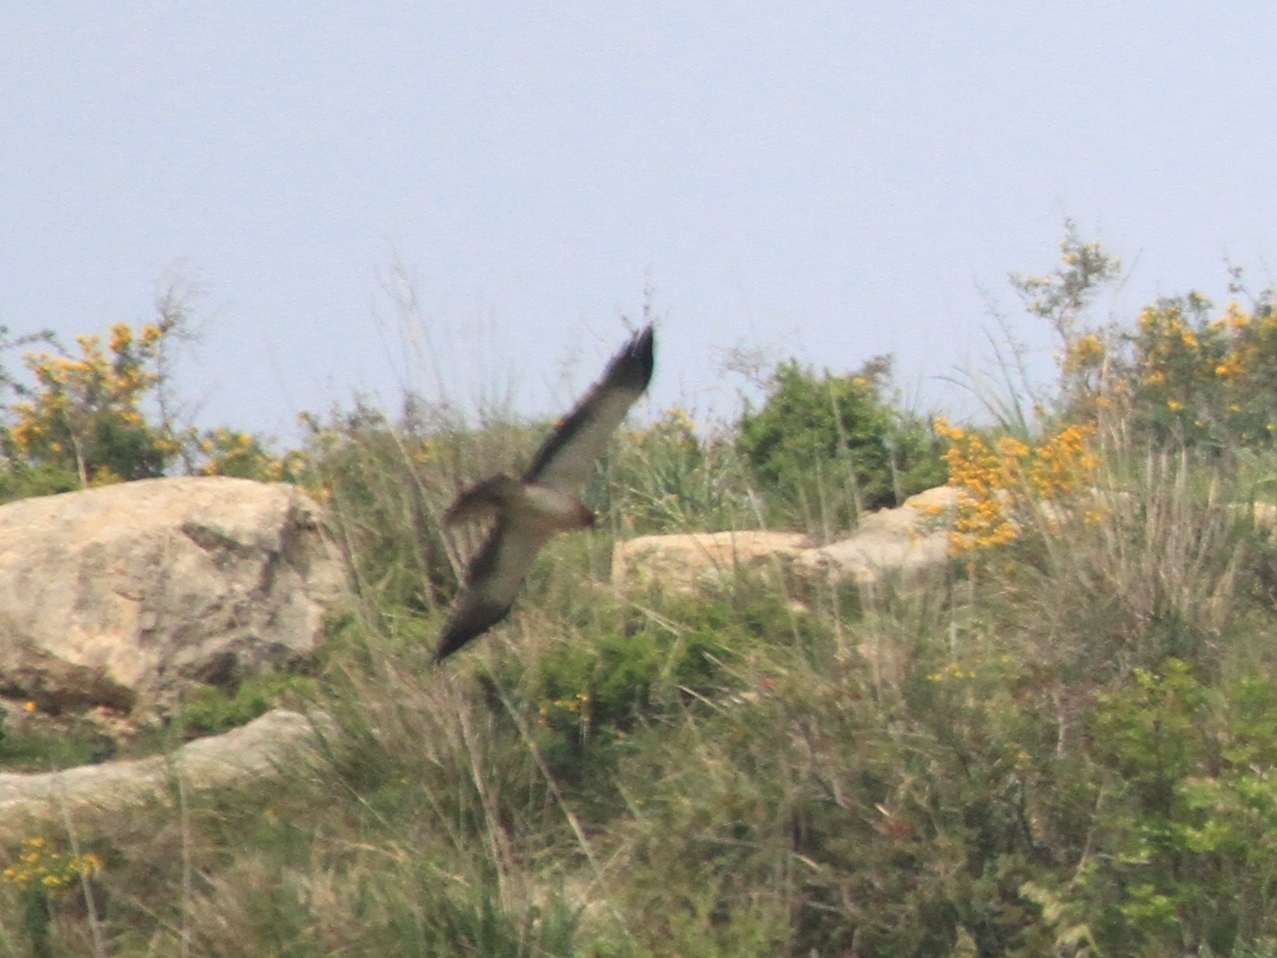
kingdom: Animalia
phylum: Chordata
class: Aves
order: Accipitriformes
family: Accipitridae
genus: Hieraaetus
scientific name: Hieraaetus pennatus
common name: Booted eagle
